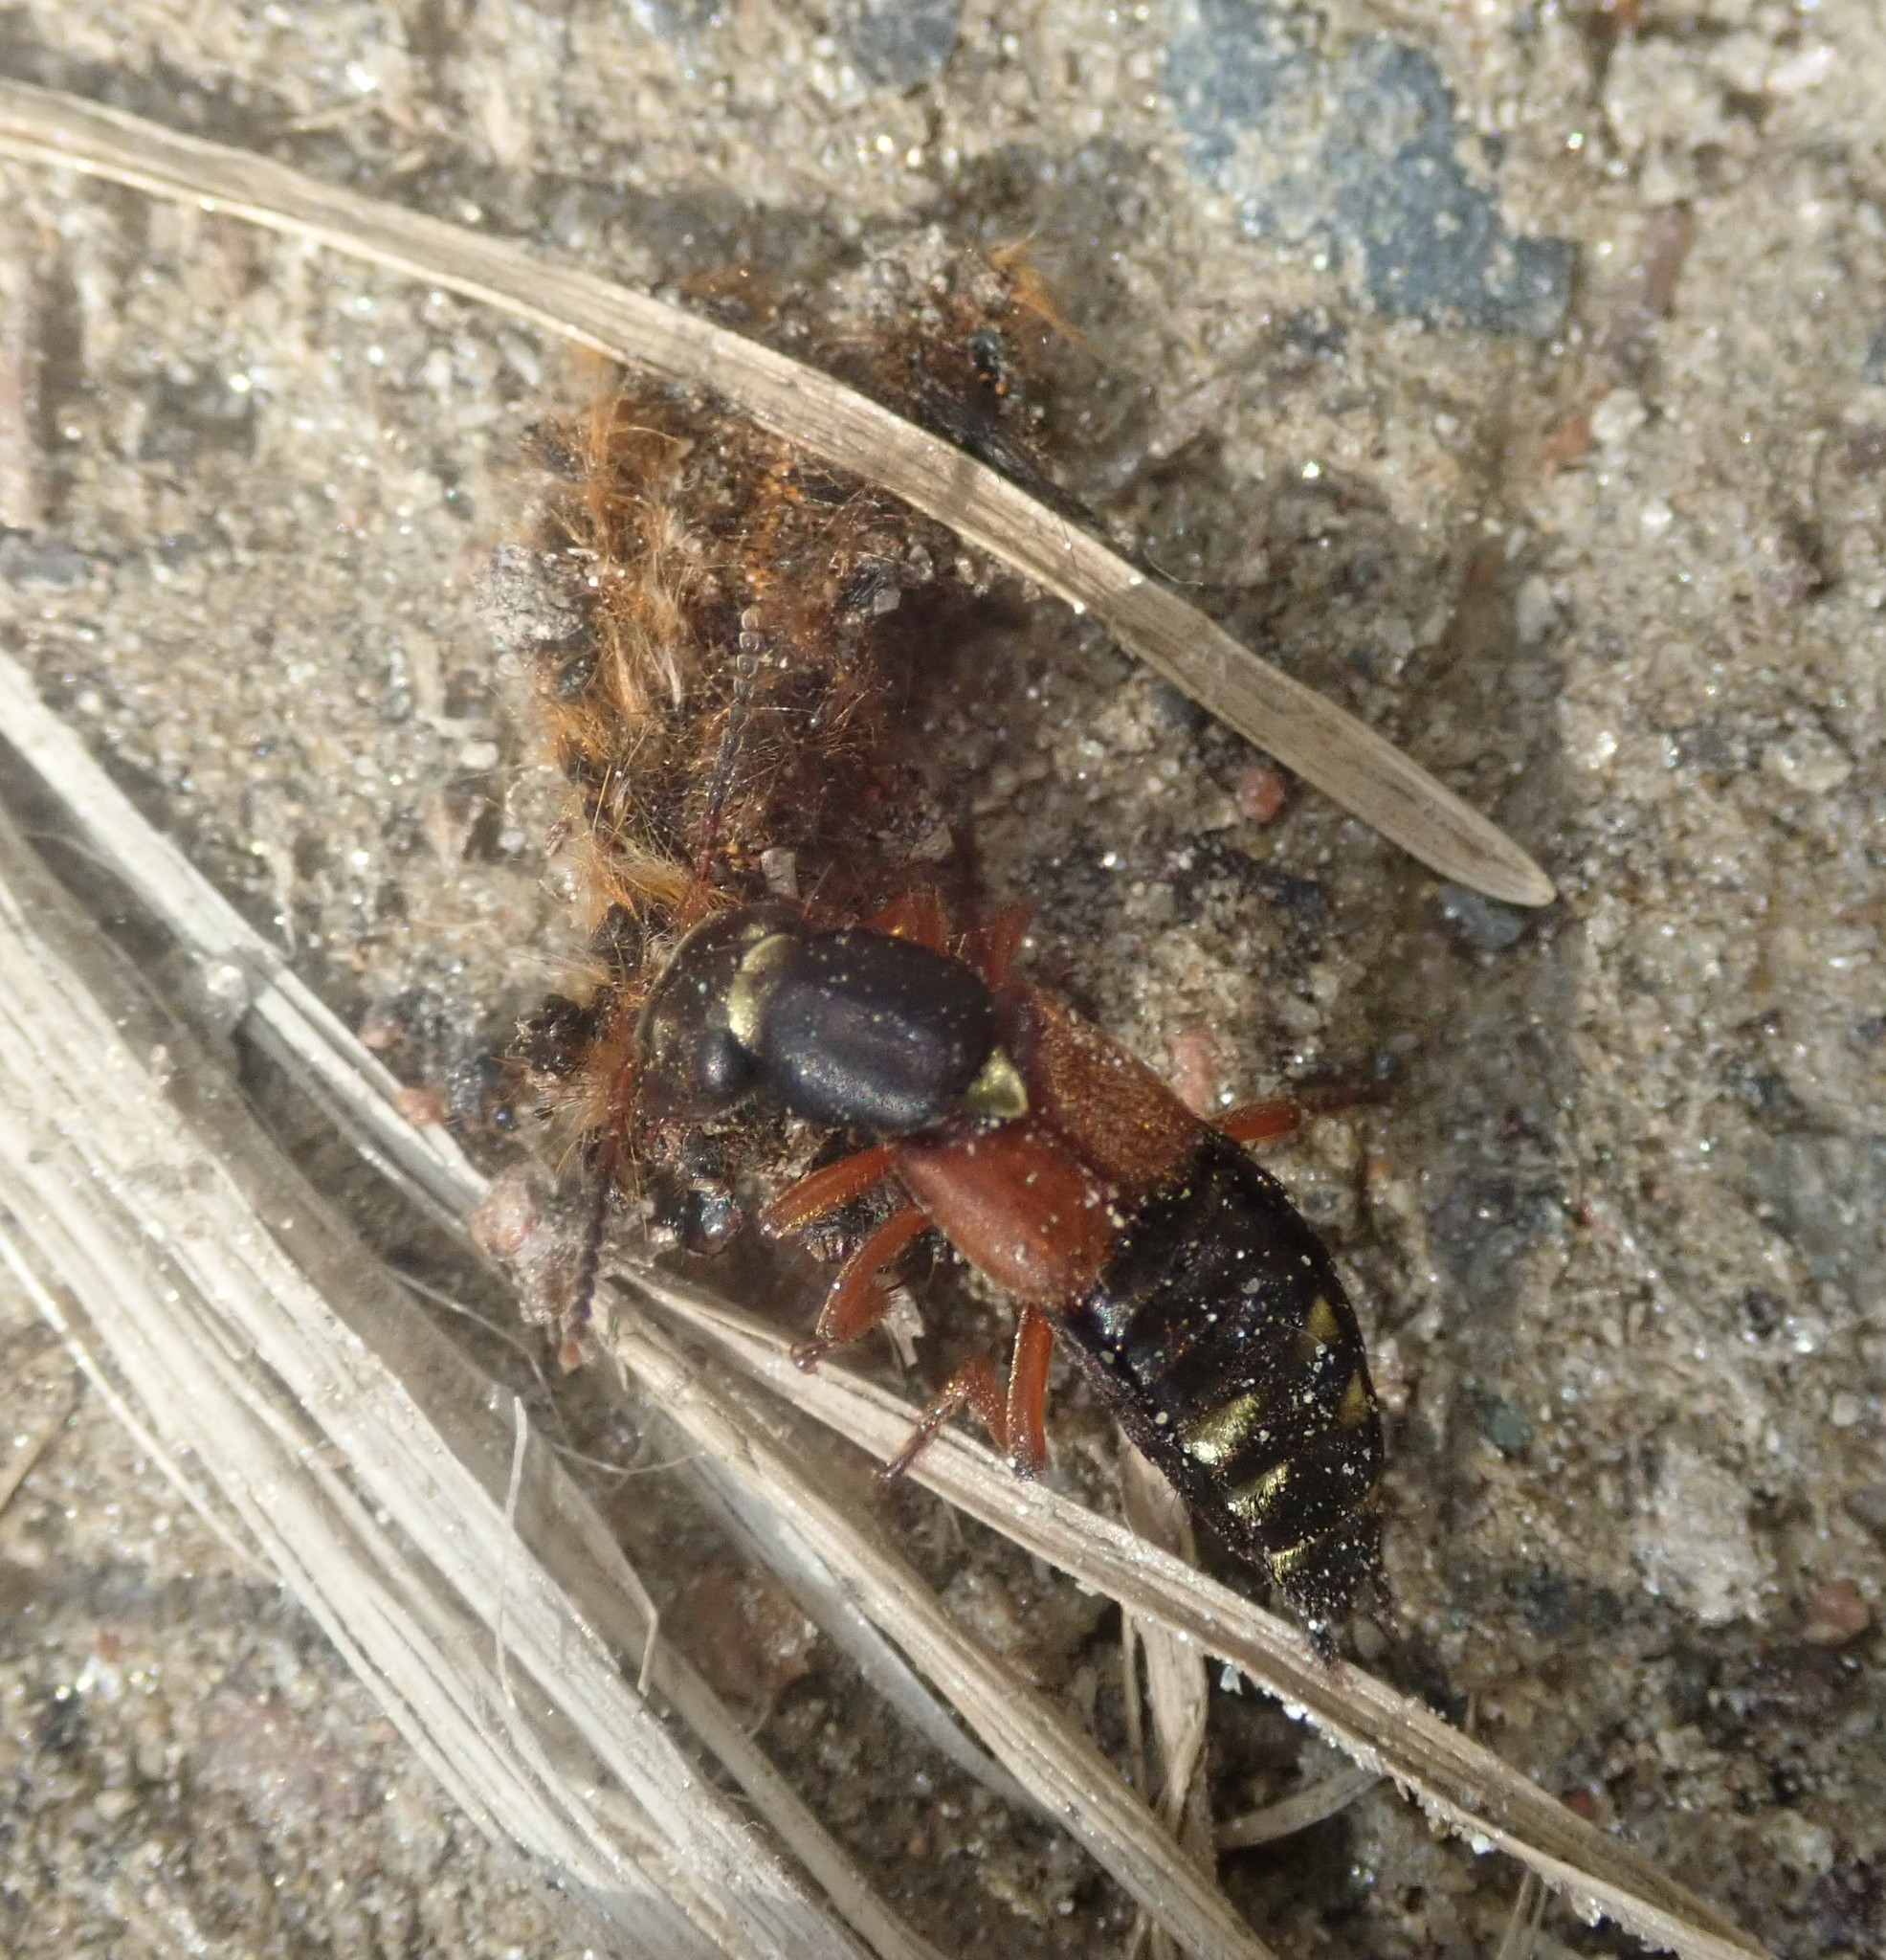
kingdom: Animalia
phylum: Arthropoda
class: Insecta
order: Coleoptera
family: Staphylinidae
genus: Staphylinus
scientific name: Staphylinus erythropterus
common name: Staph beetle
